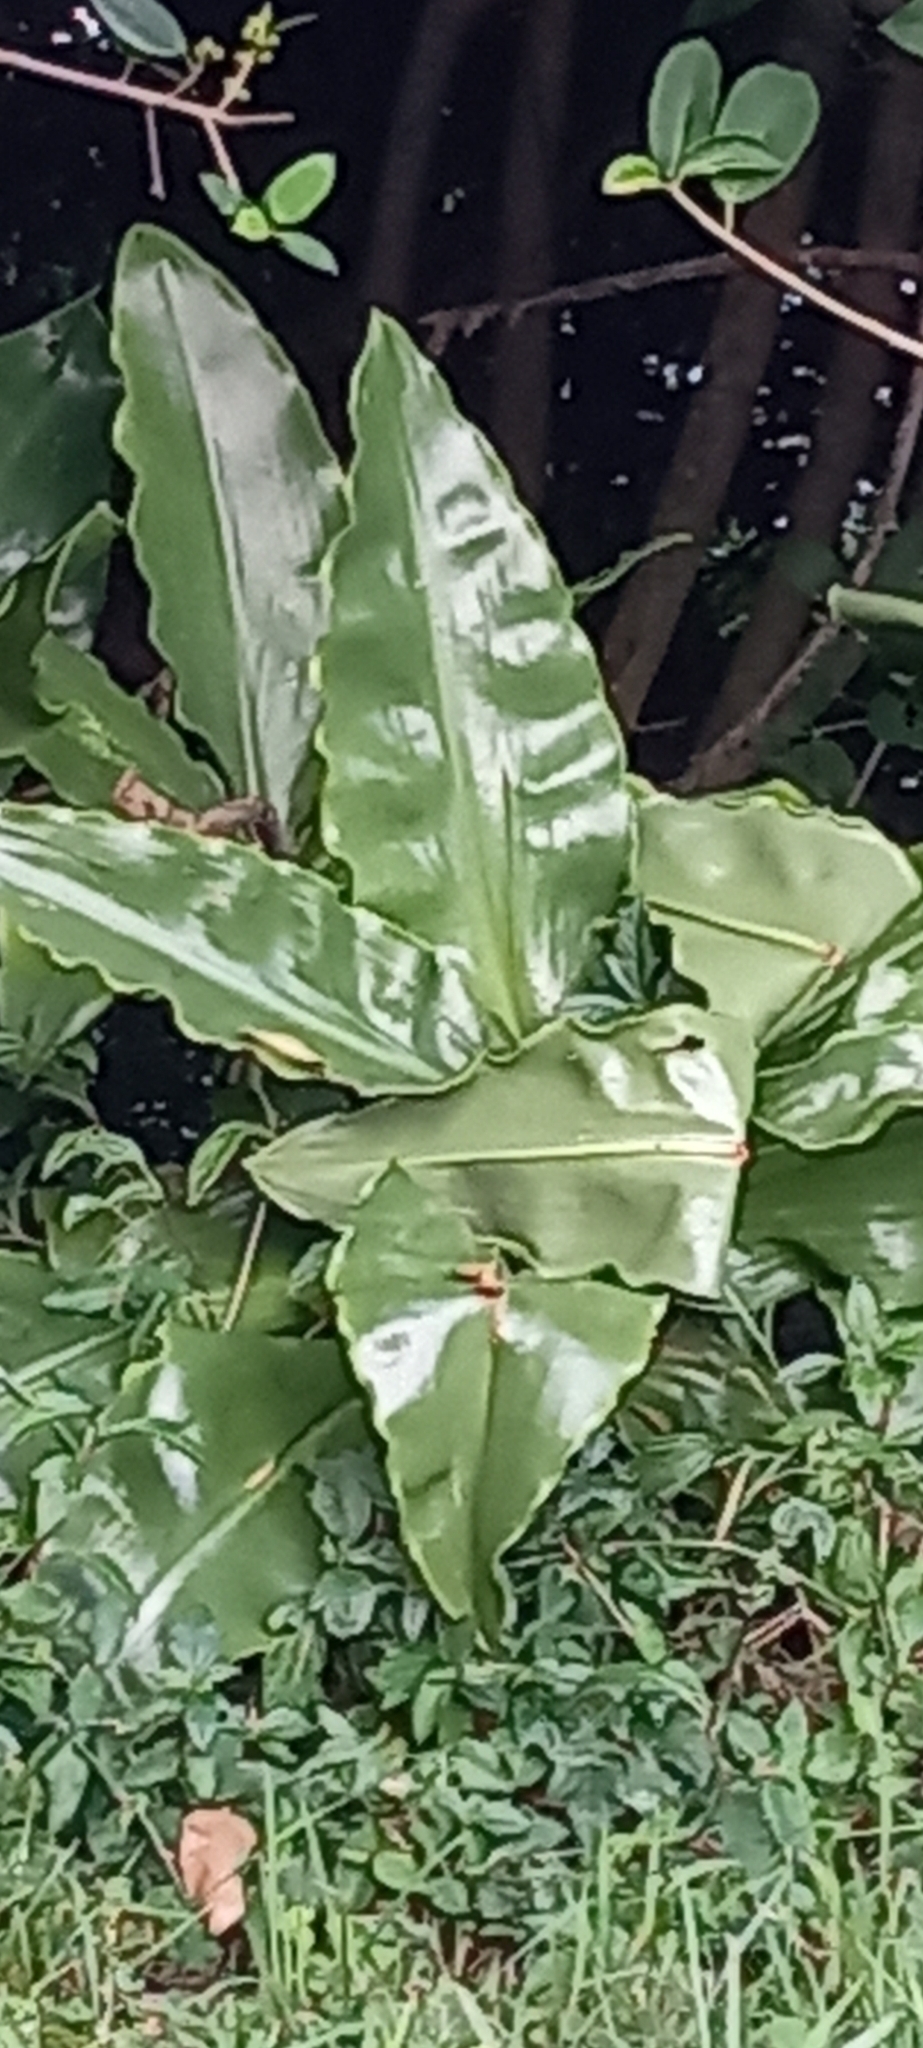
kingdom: Plantae
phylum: Tracheophyta
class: Liliopsida
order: Asparagales
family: Amaryllidaceae
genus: Scadoxus
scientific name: Scadoxus puniceus
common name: Royal-paintbrush
